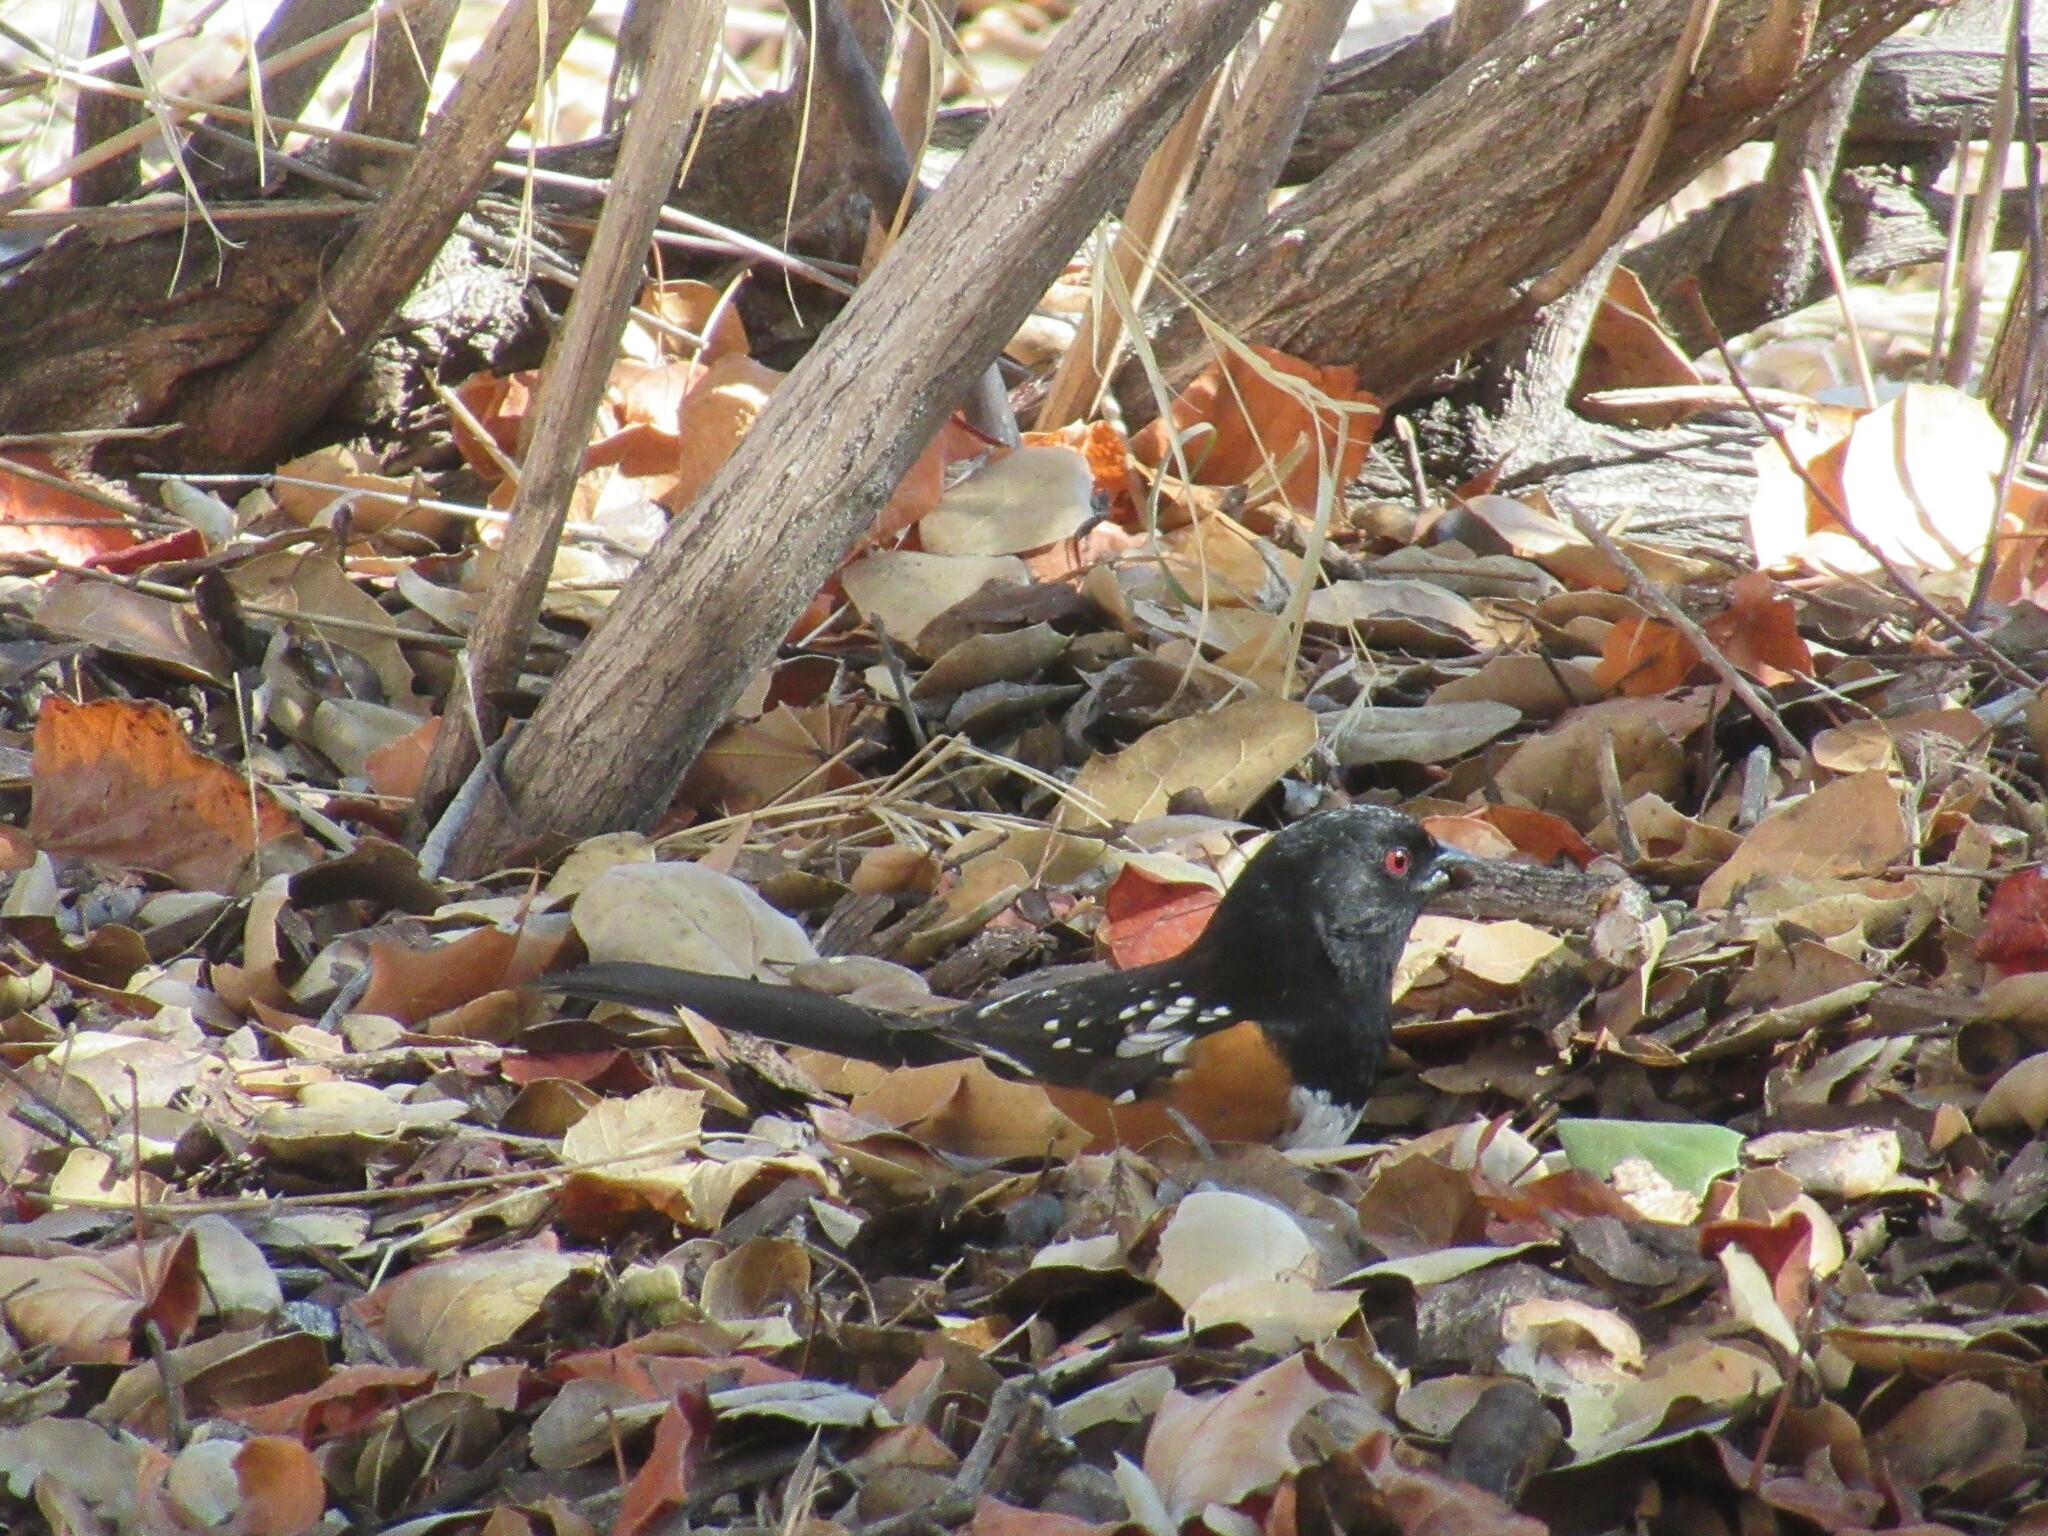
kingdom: Animalia
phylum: Chordata
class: Aves
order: Passeriformes
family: Passerellidae
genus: Pipilo
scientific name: Pipilo maculatus
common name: Spotted towhee
